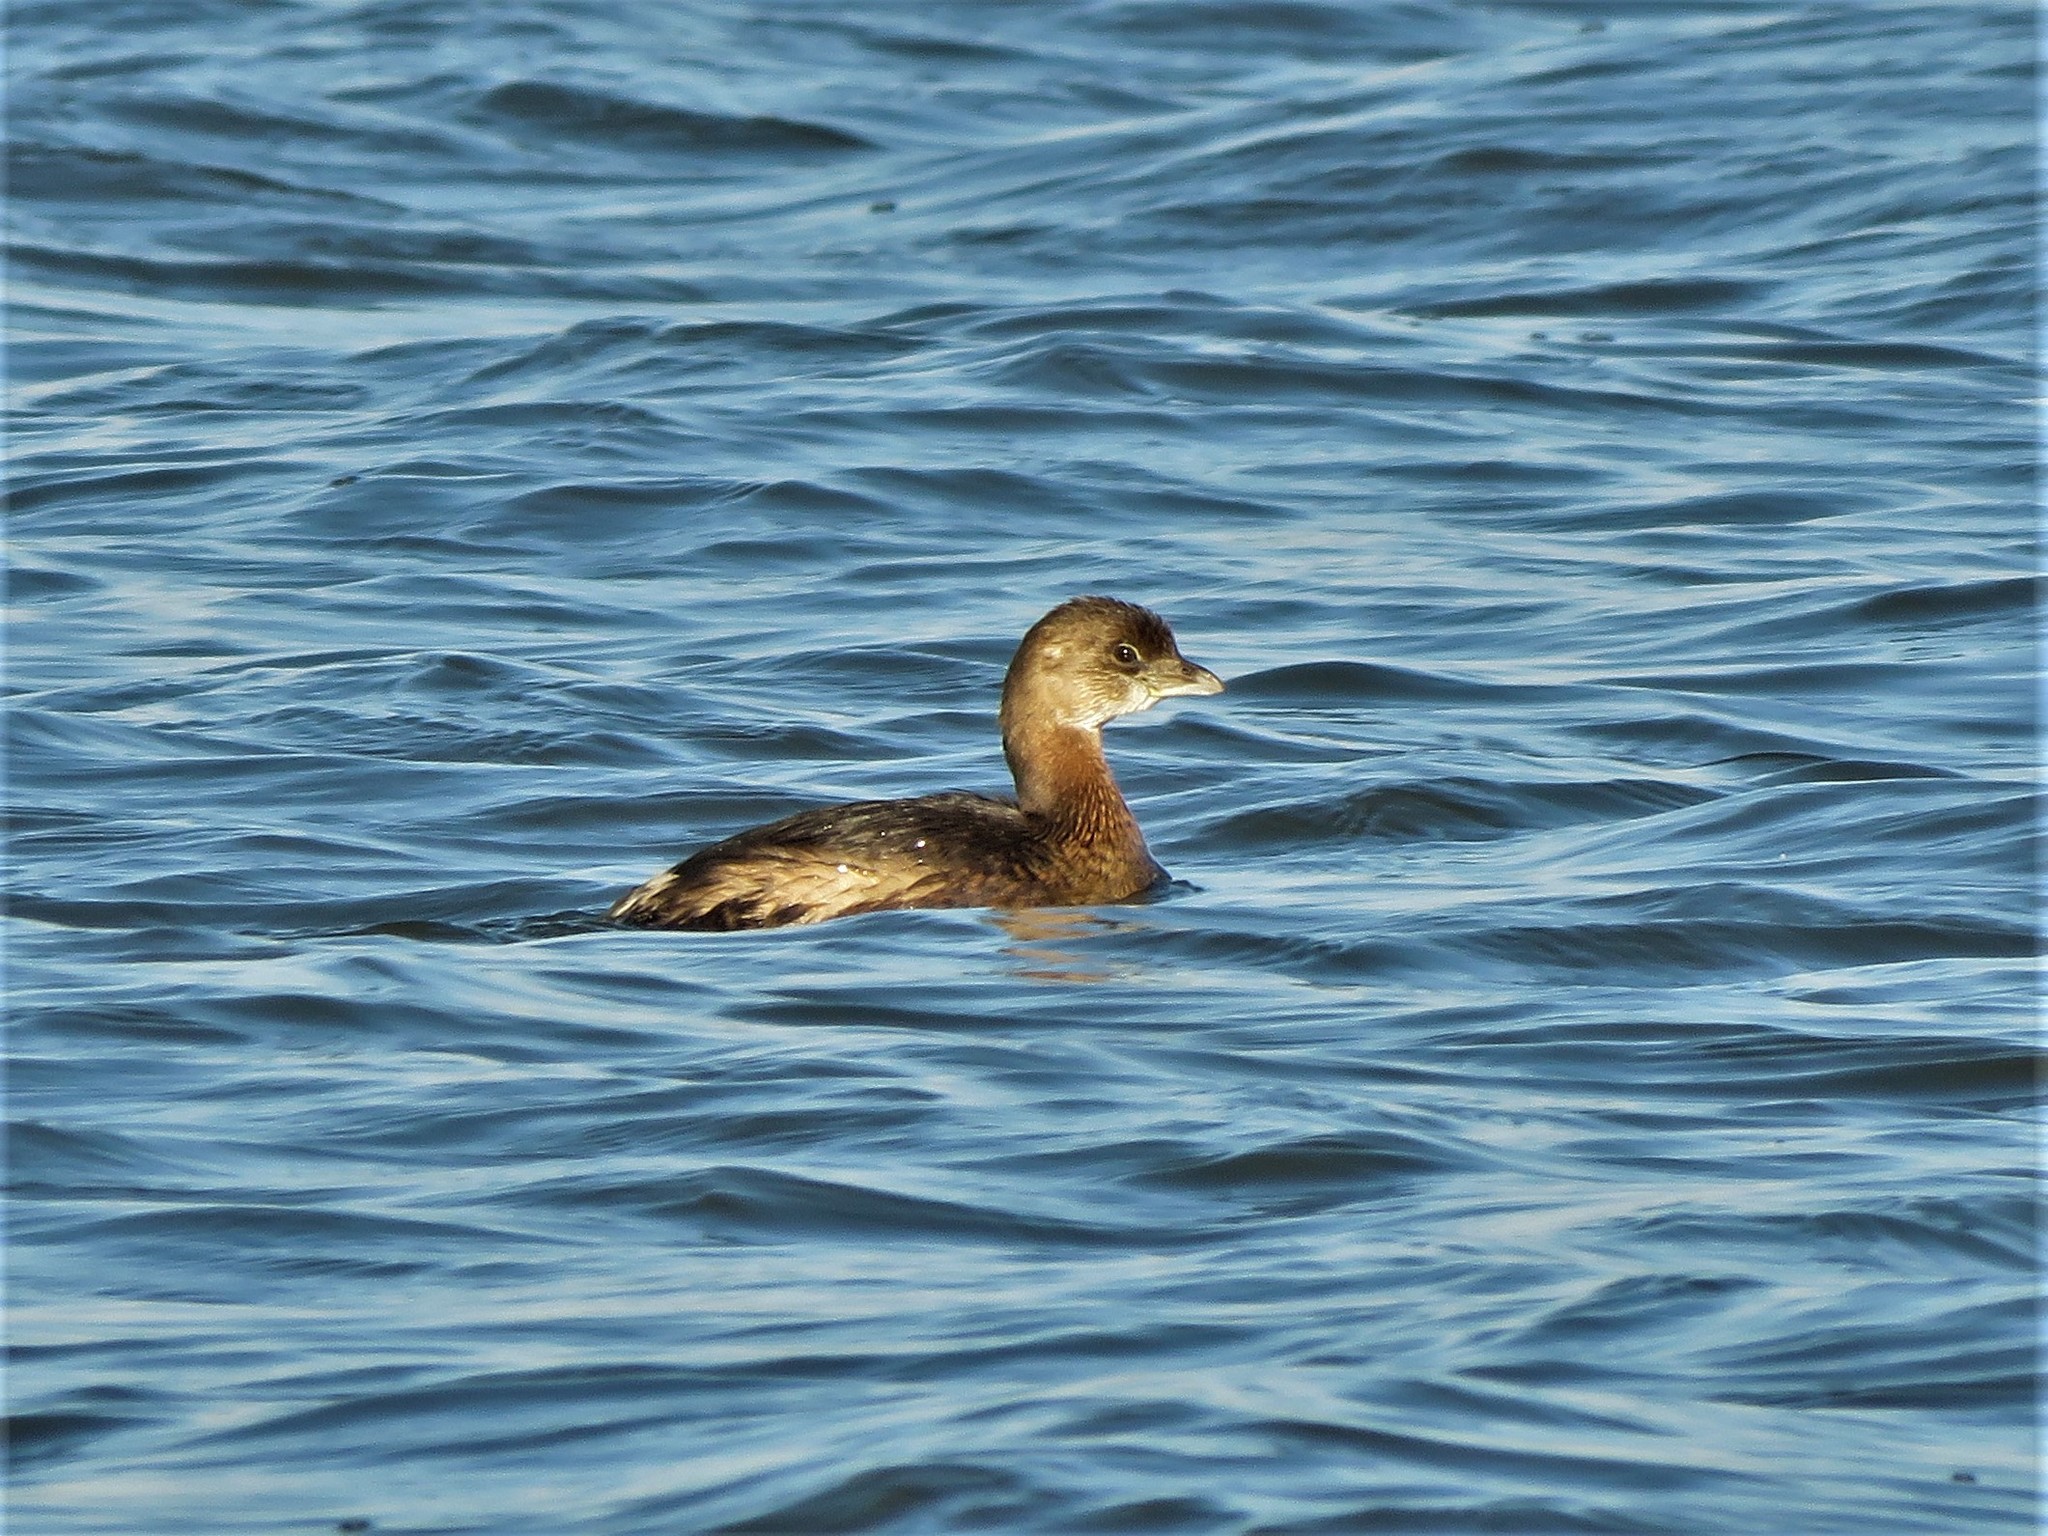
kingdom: Animalia
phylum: Chordata
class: Aves
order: Podicipediformes
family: Podicipedidae
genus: Podilymbus
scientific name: Podilymbus podiceps
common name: Pied-billed grebe
